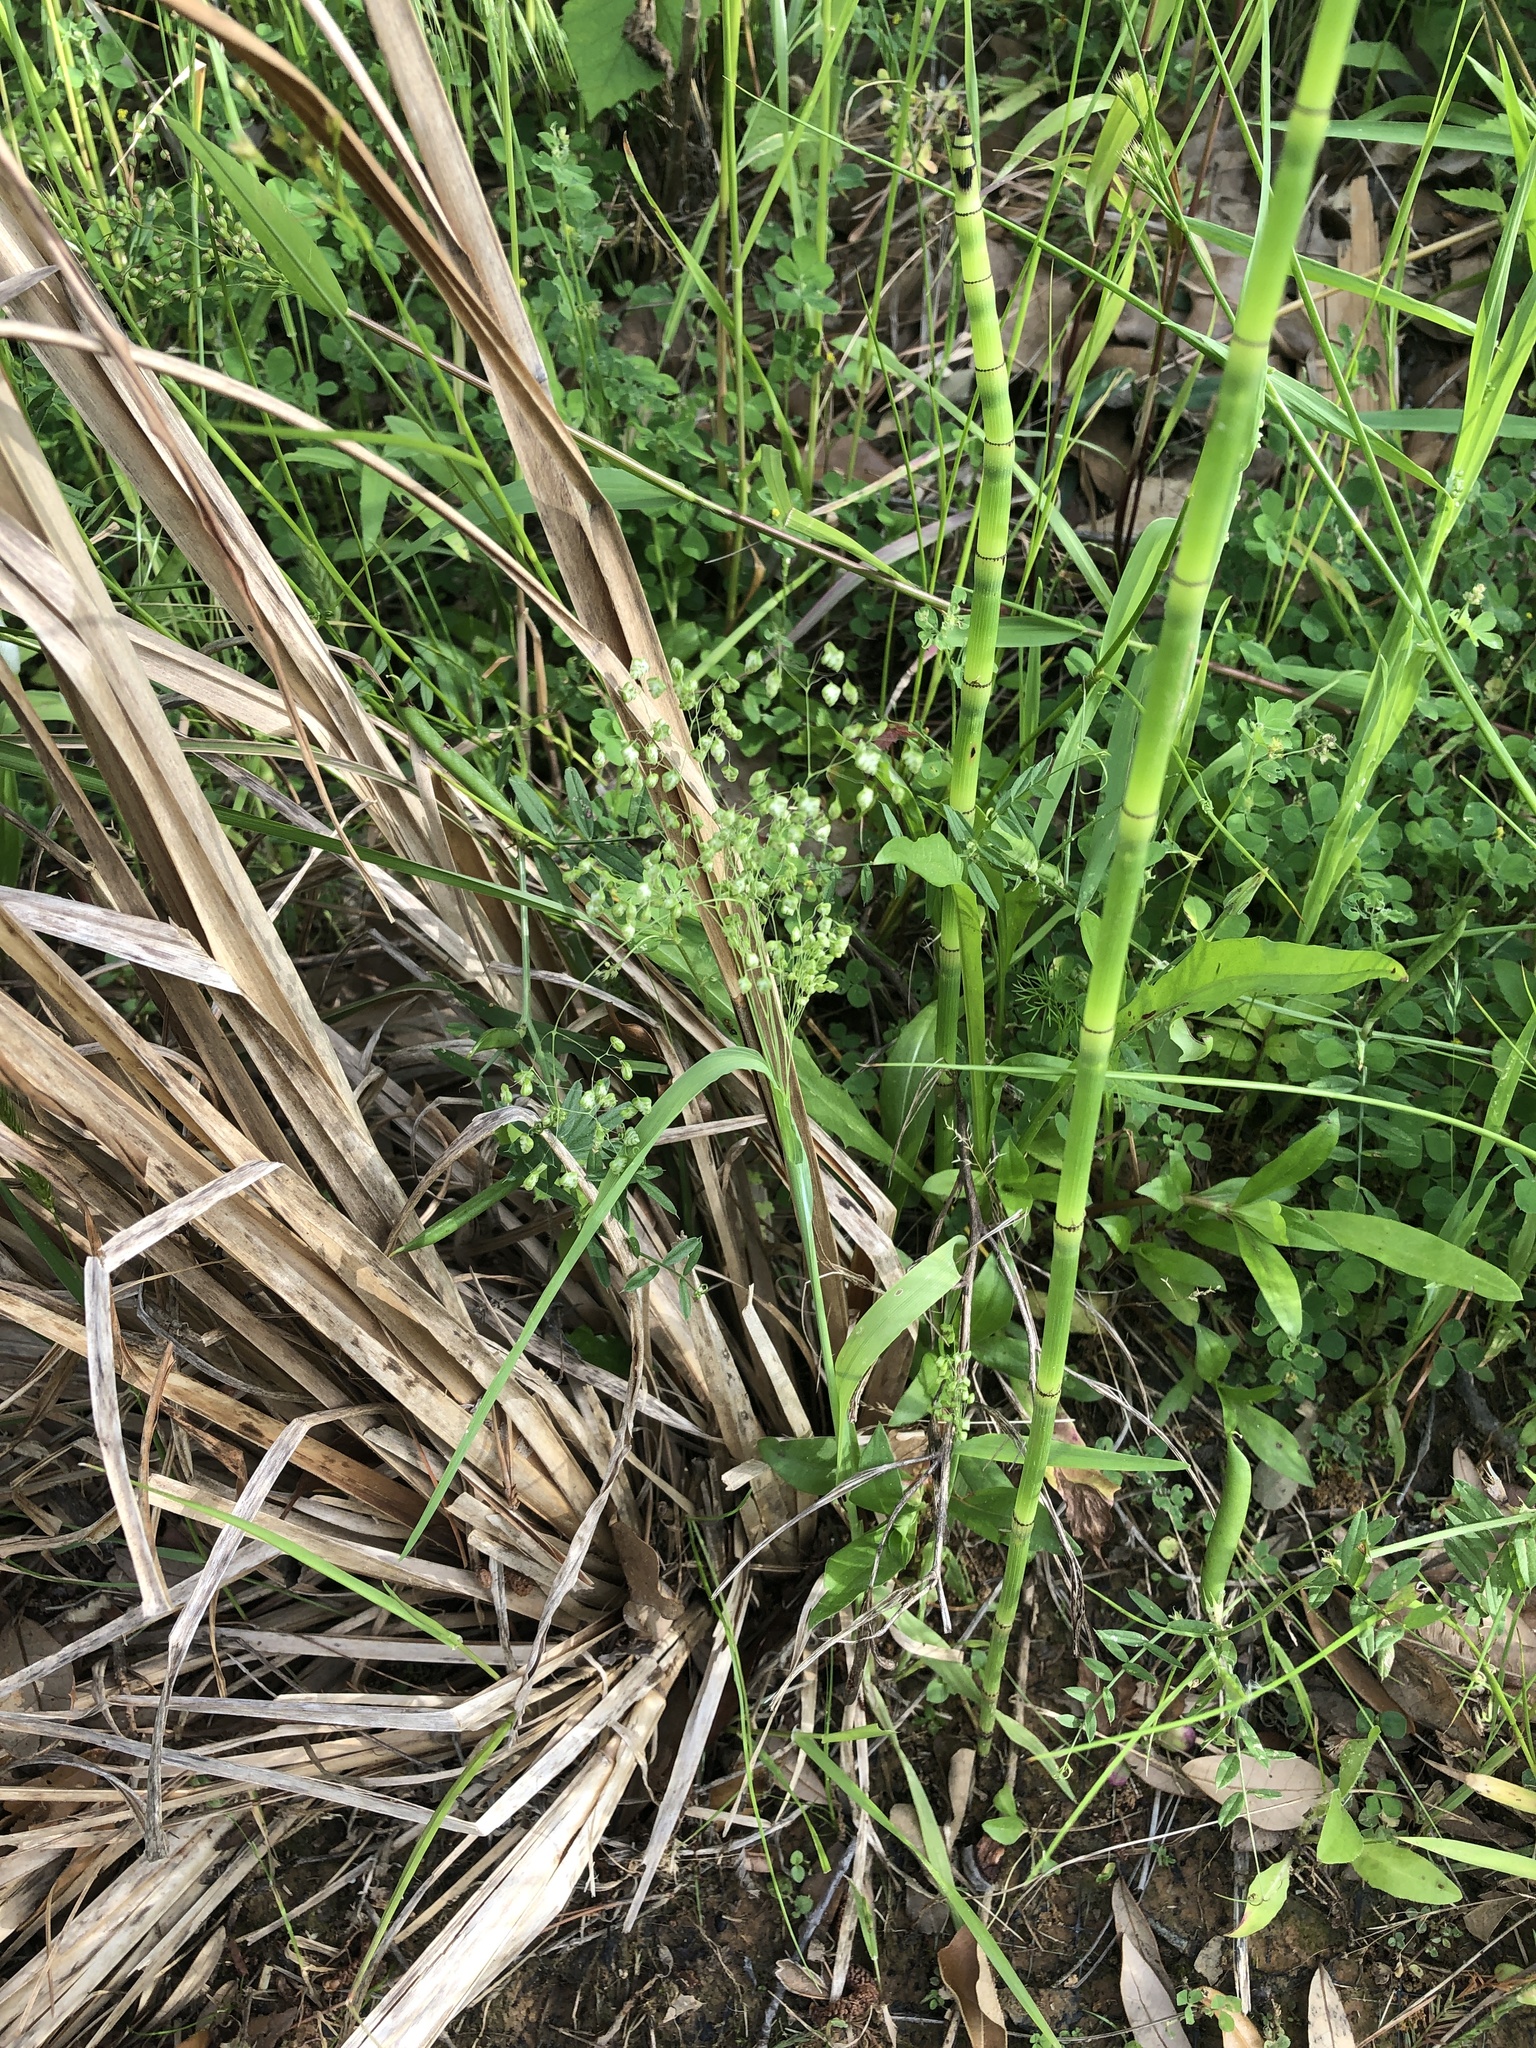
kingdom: Plantae
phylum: Tracheophyta
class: Liliopsida
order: Poales
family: Poaceae
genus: Briza
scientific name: Briza minor
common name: Lesser quaking-grass
